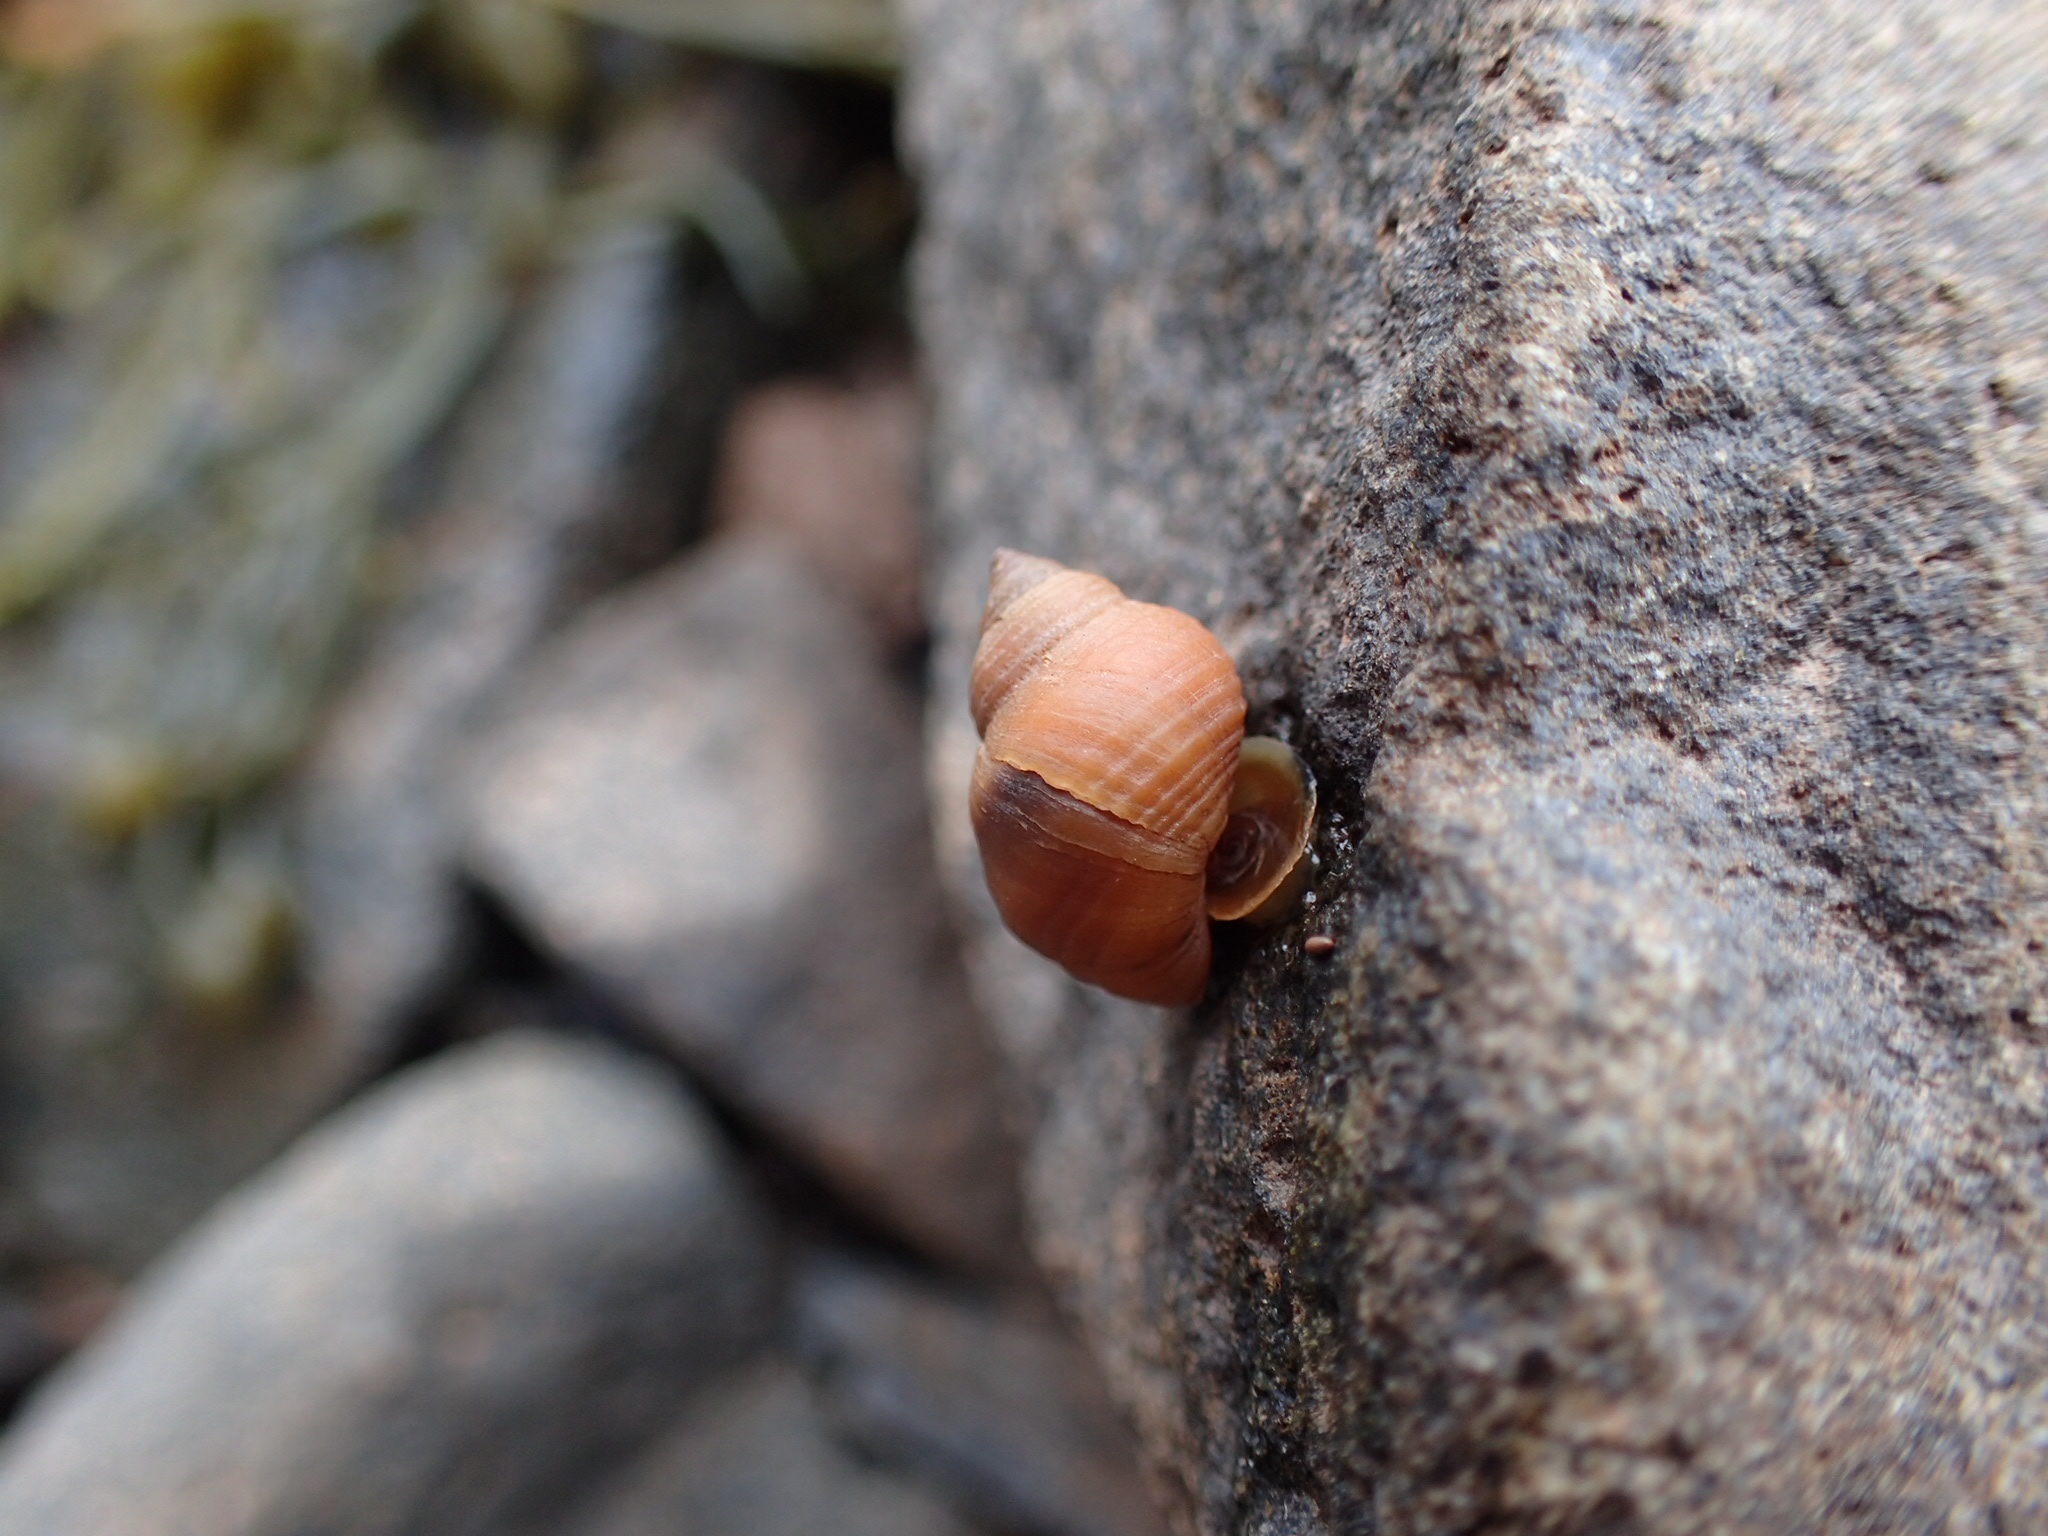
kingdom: Animalia
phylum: Mollusca
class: Gastropoda
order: Littorinimorpha
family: Littorinidae
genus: Littorina
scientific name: Littorina saxatilis
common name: Black-lined periwinkle
